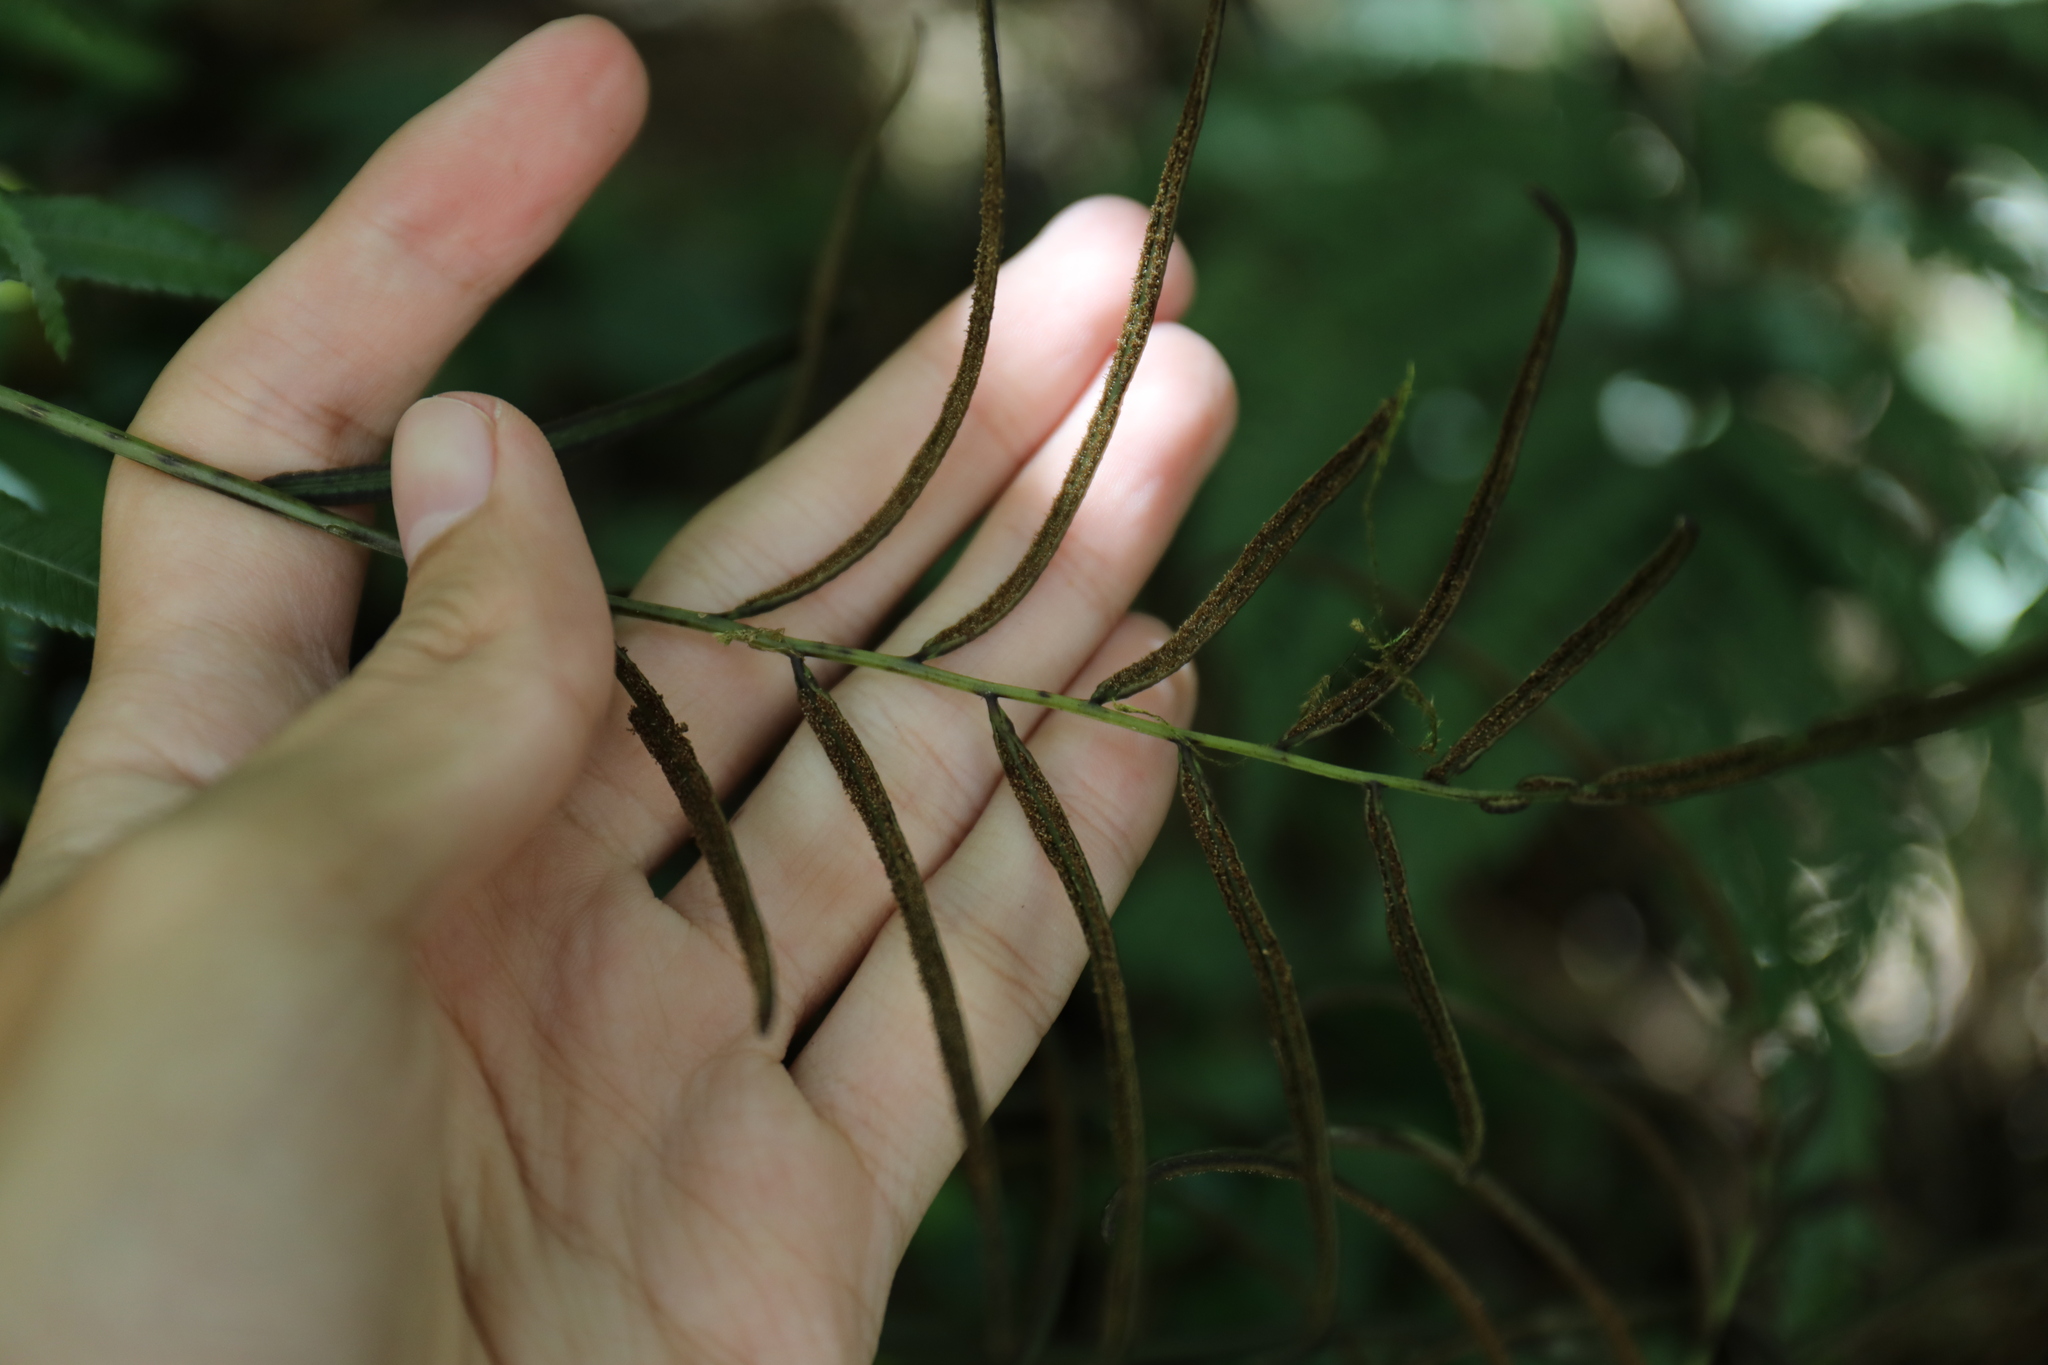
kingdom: Plantae
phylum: Tracheophyta
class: Polypodiopsida
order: Cyatheales
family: Plagiogyriaceae
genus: Plagiogyria
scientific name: Plagiogyria euphlebia
